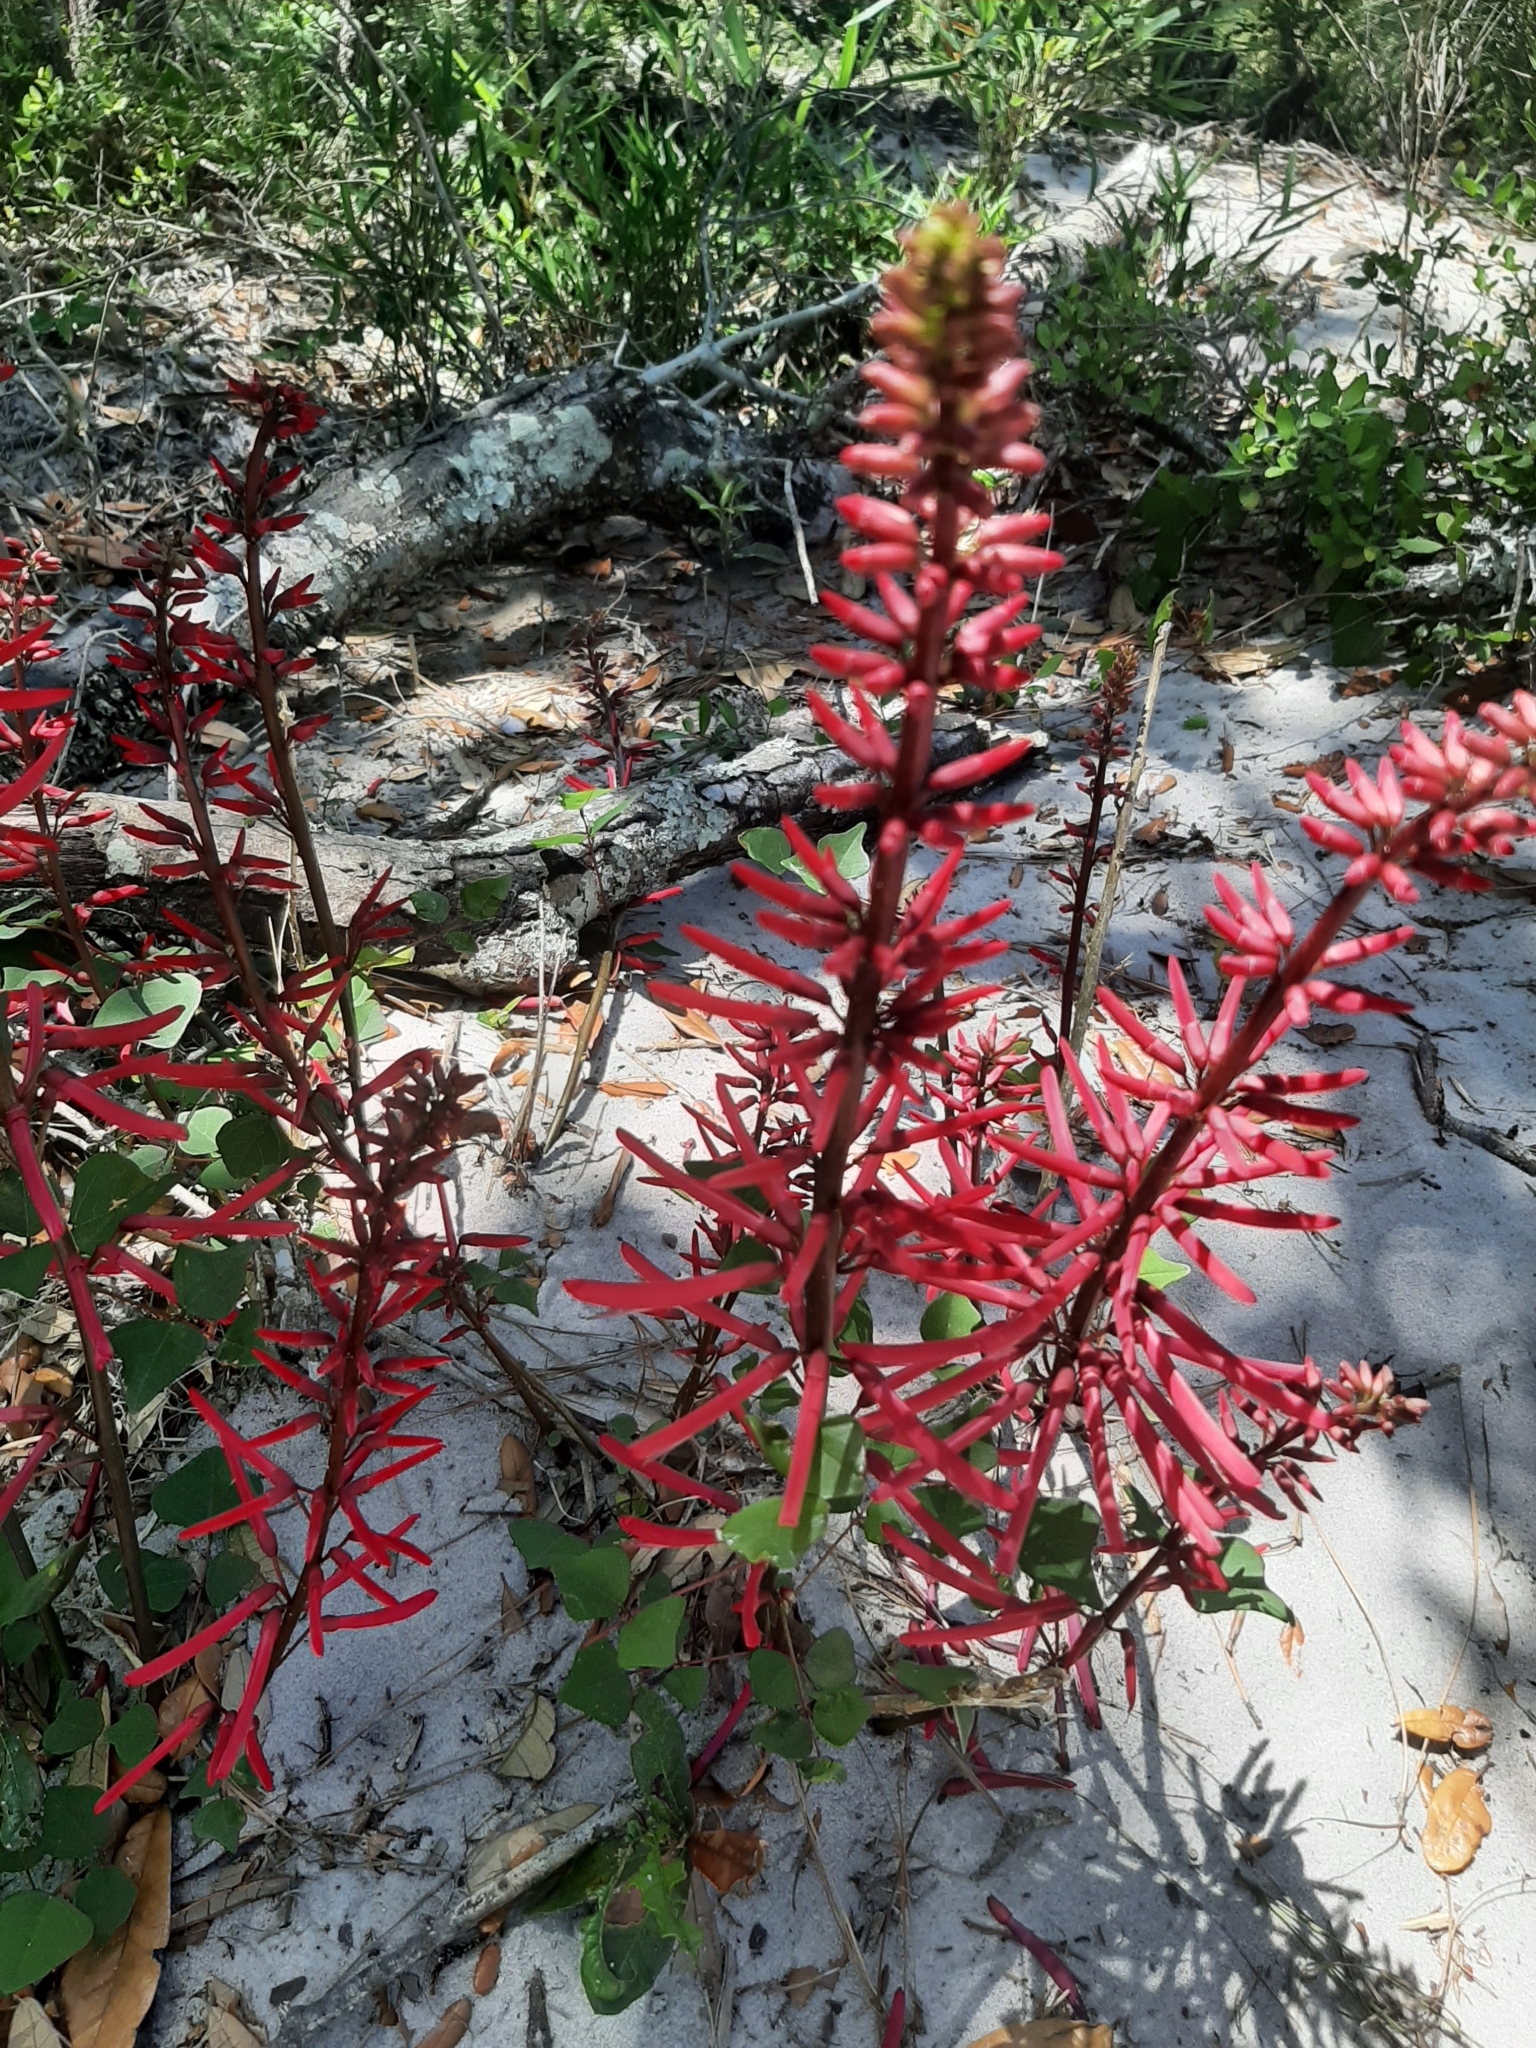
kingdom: Plantae
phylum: Tracheophyta
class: Magnoliopsida
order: Fabales
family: Fabaceae
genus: Erythrina
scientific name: Erythrina herbacea
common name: Coral-bean
